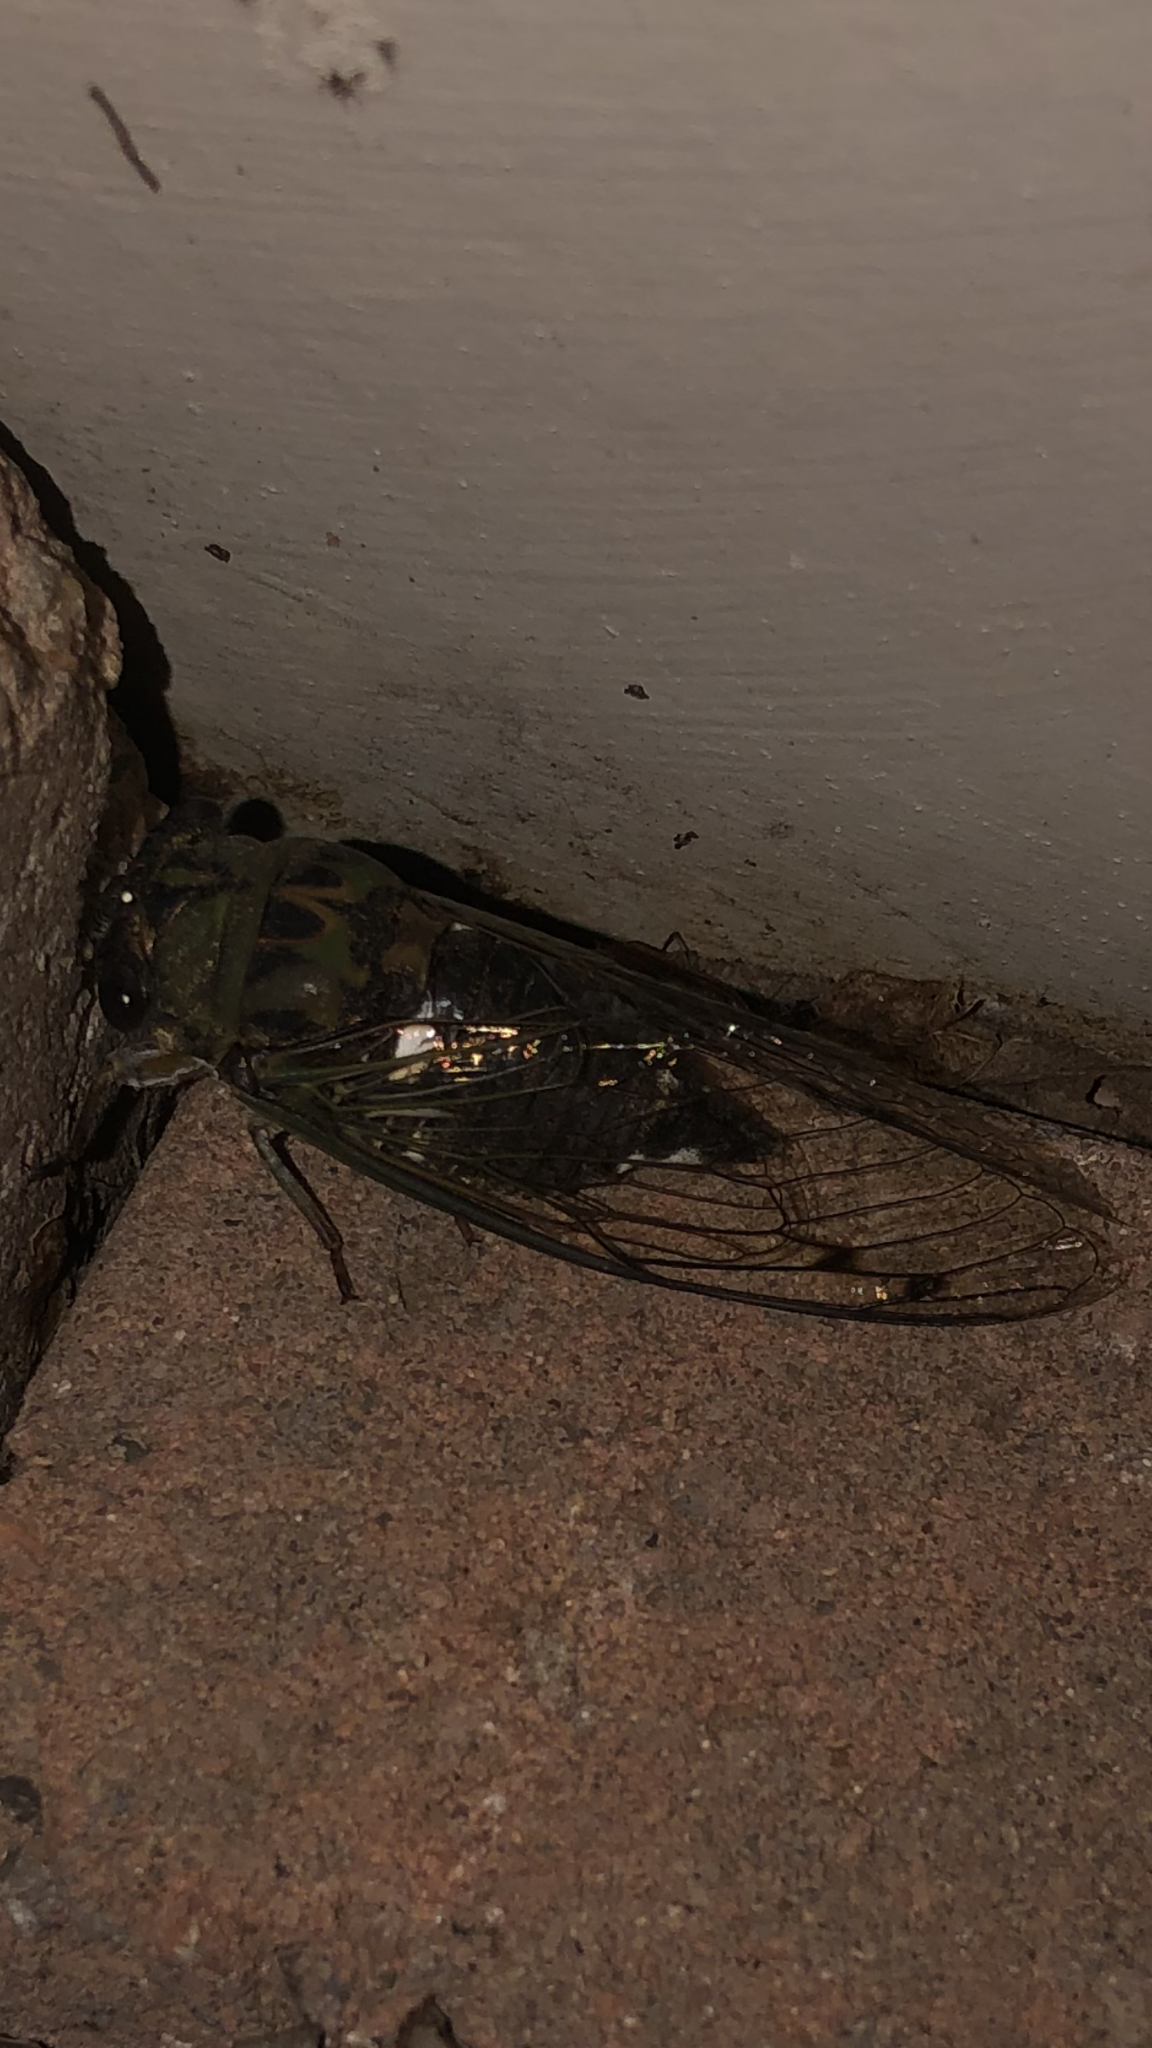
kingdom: Animalia
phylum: Arthropoda
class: Insecta
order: Hemiptera
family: Cicadidae
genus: Neotibicen
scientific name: Neotibicen pruinosus
